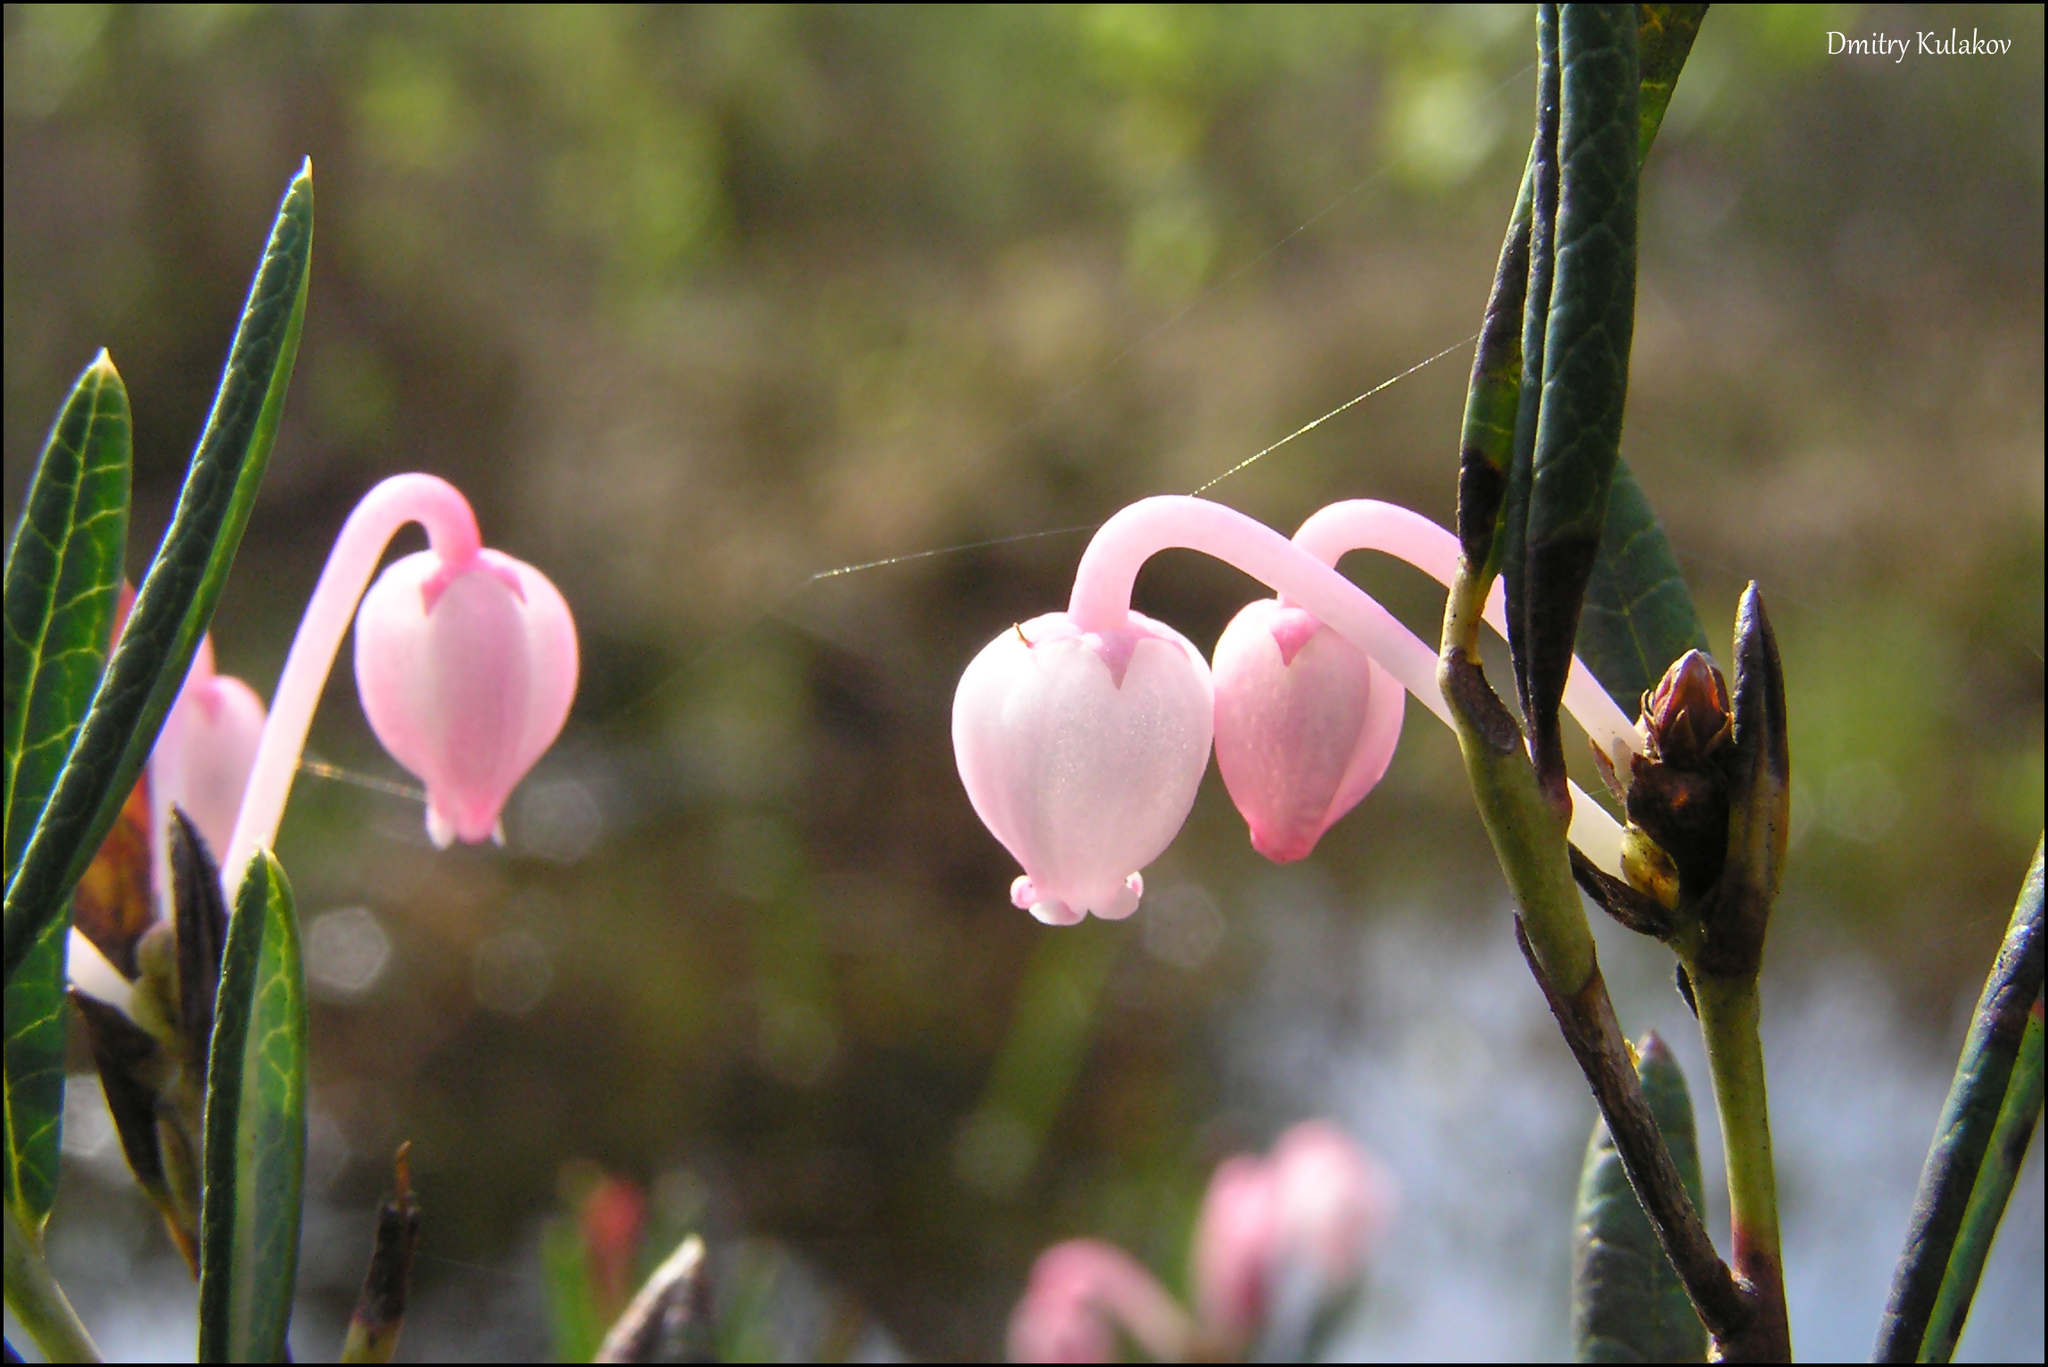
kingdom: Plantae
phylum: Tracheophyta
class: Magnoliopsida
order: Ericales
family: Ericaceae
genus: Andromeda
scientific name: Andromeda polifolia
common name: Bog-rosemary
